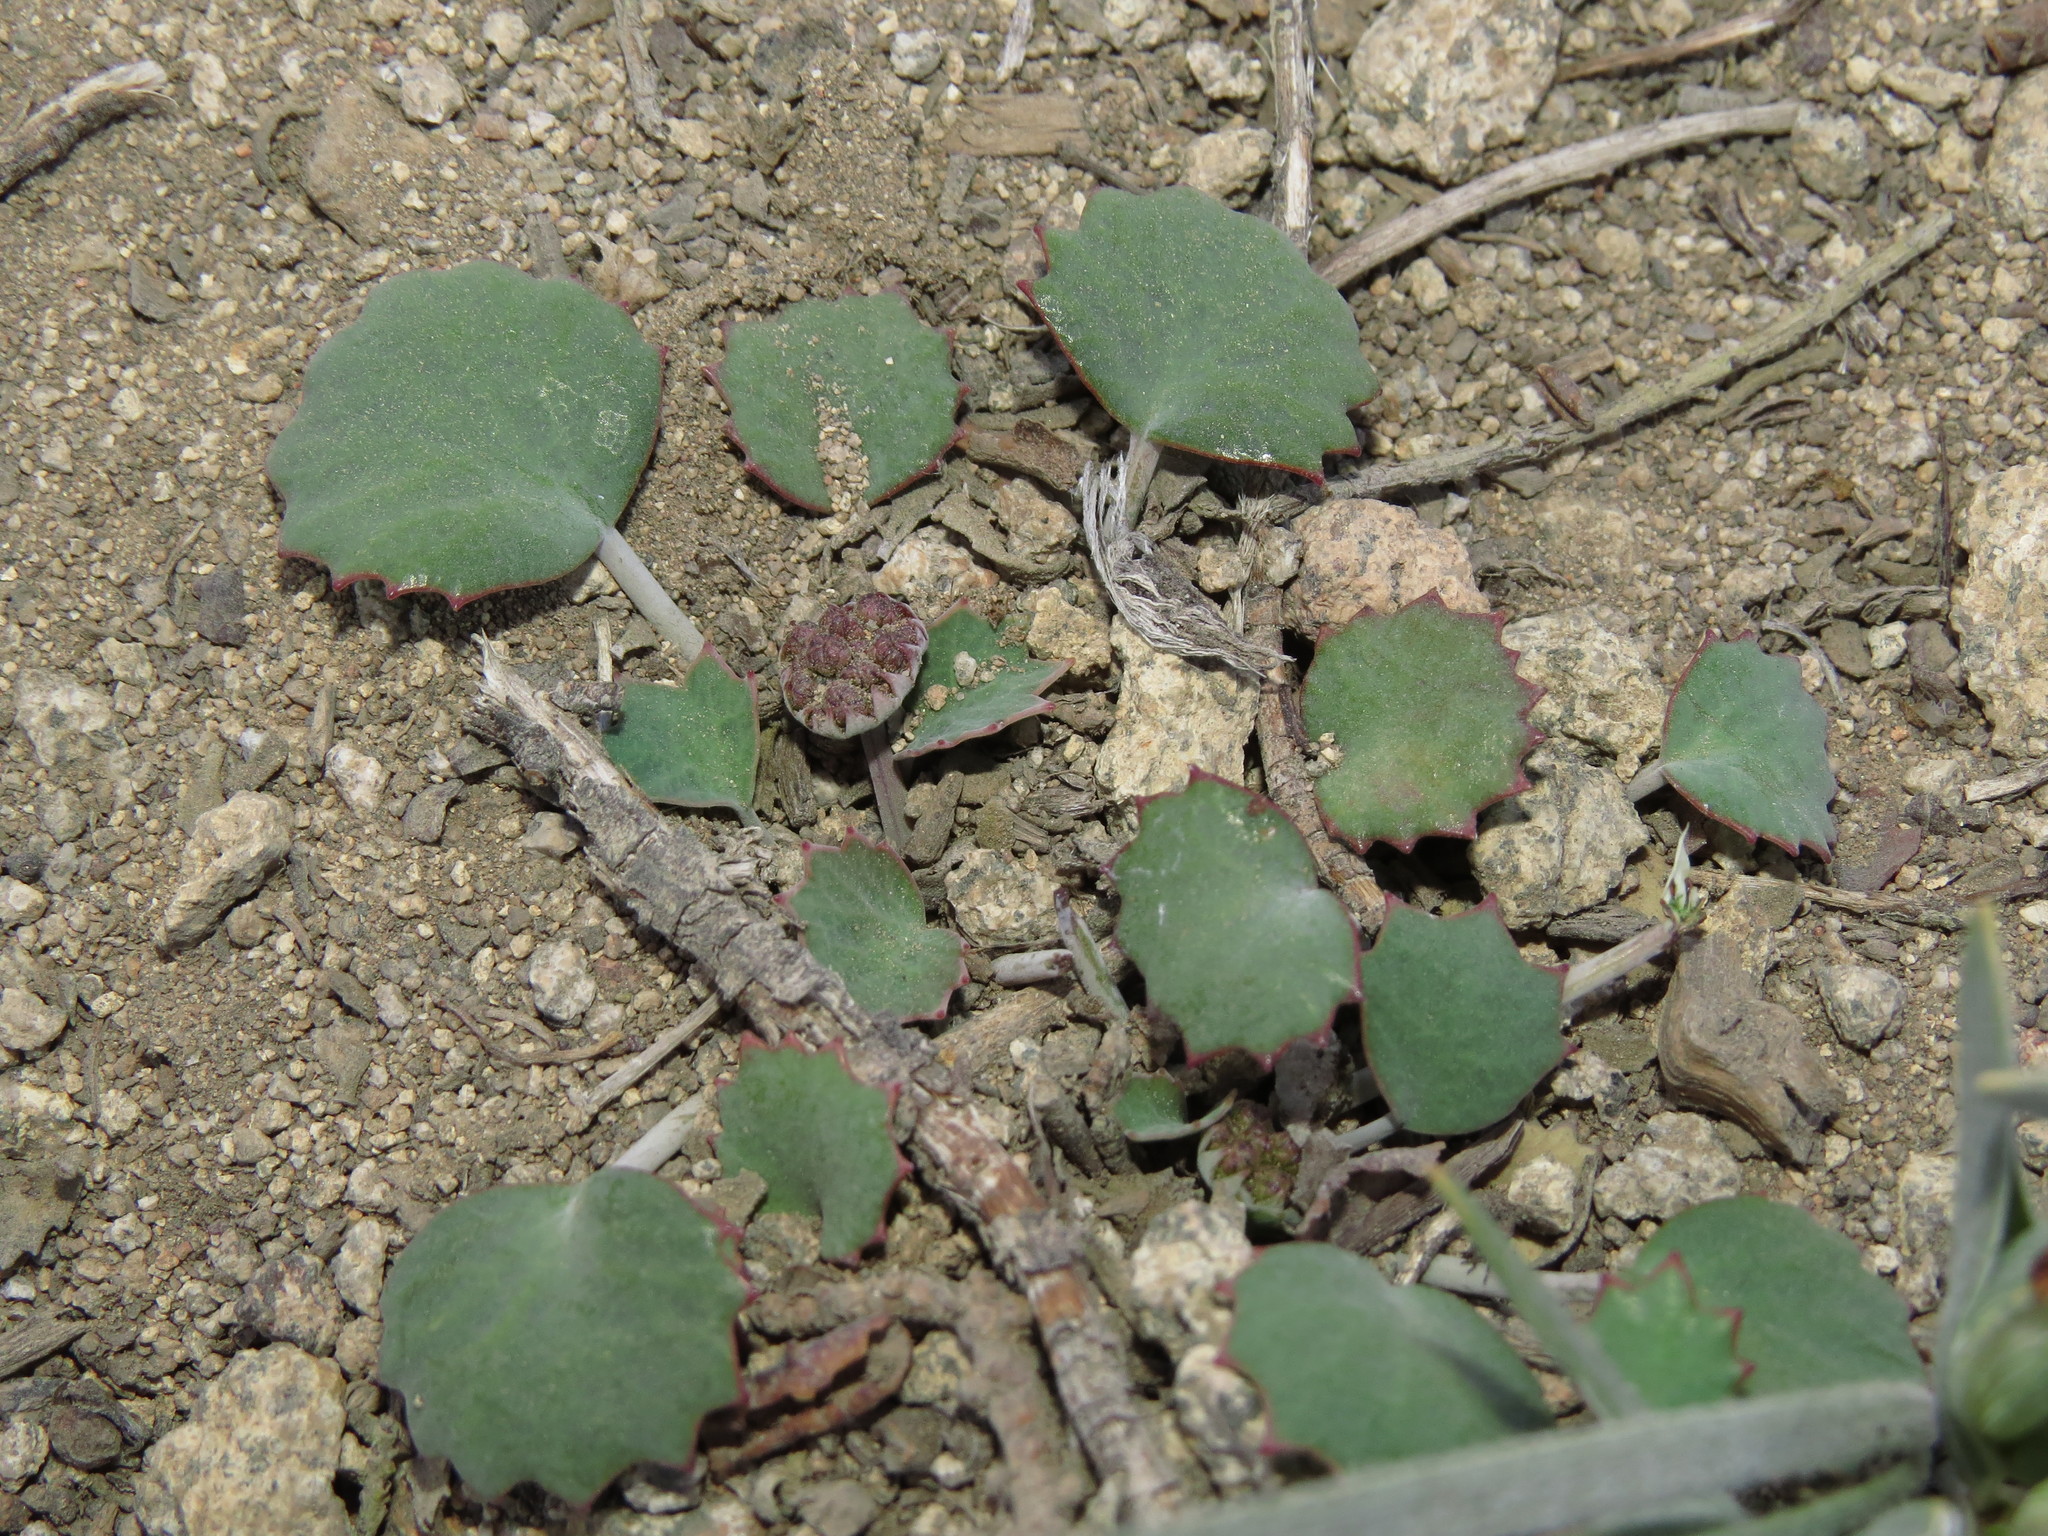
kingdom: Plantae
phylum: Tracheophyta
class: Magnoliopsida
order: Apiales
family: Apiaceae
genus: Pozoa
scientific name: Pozoa coriacea
